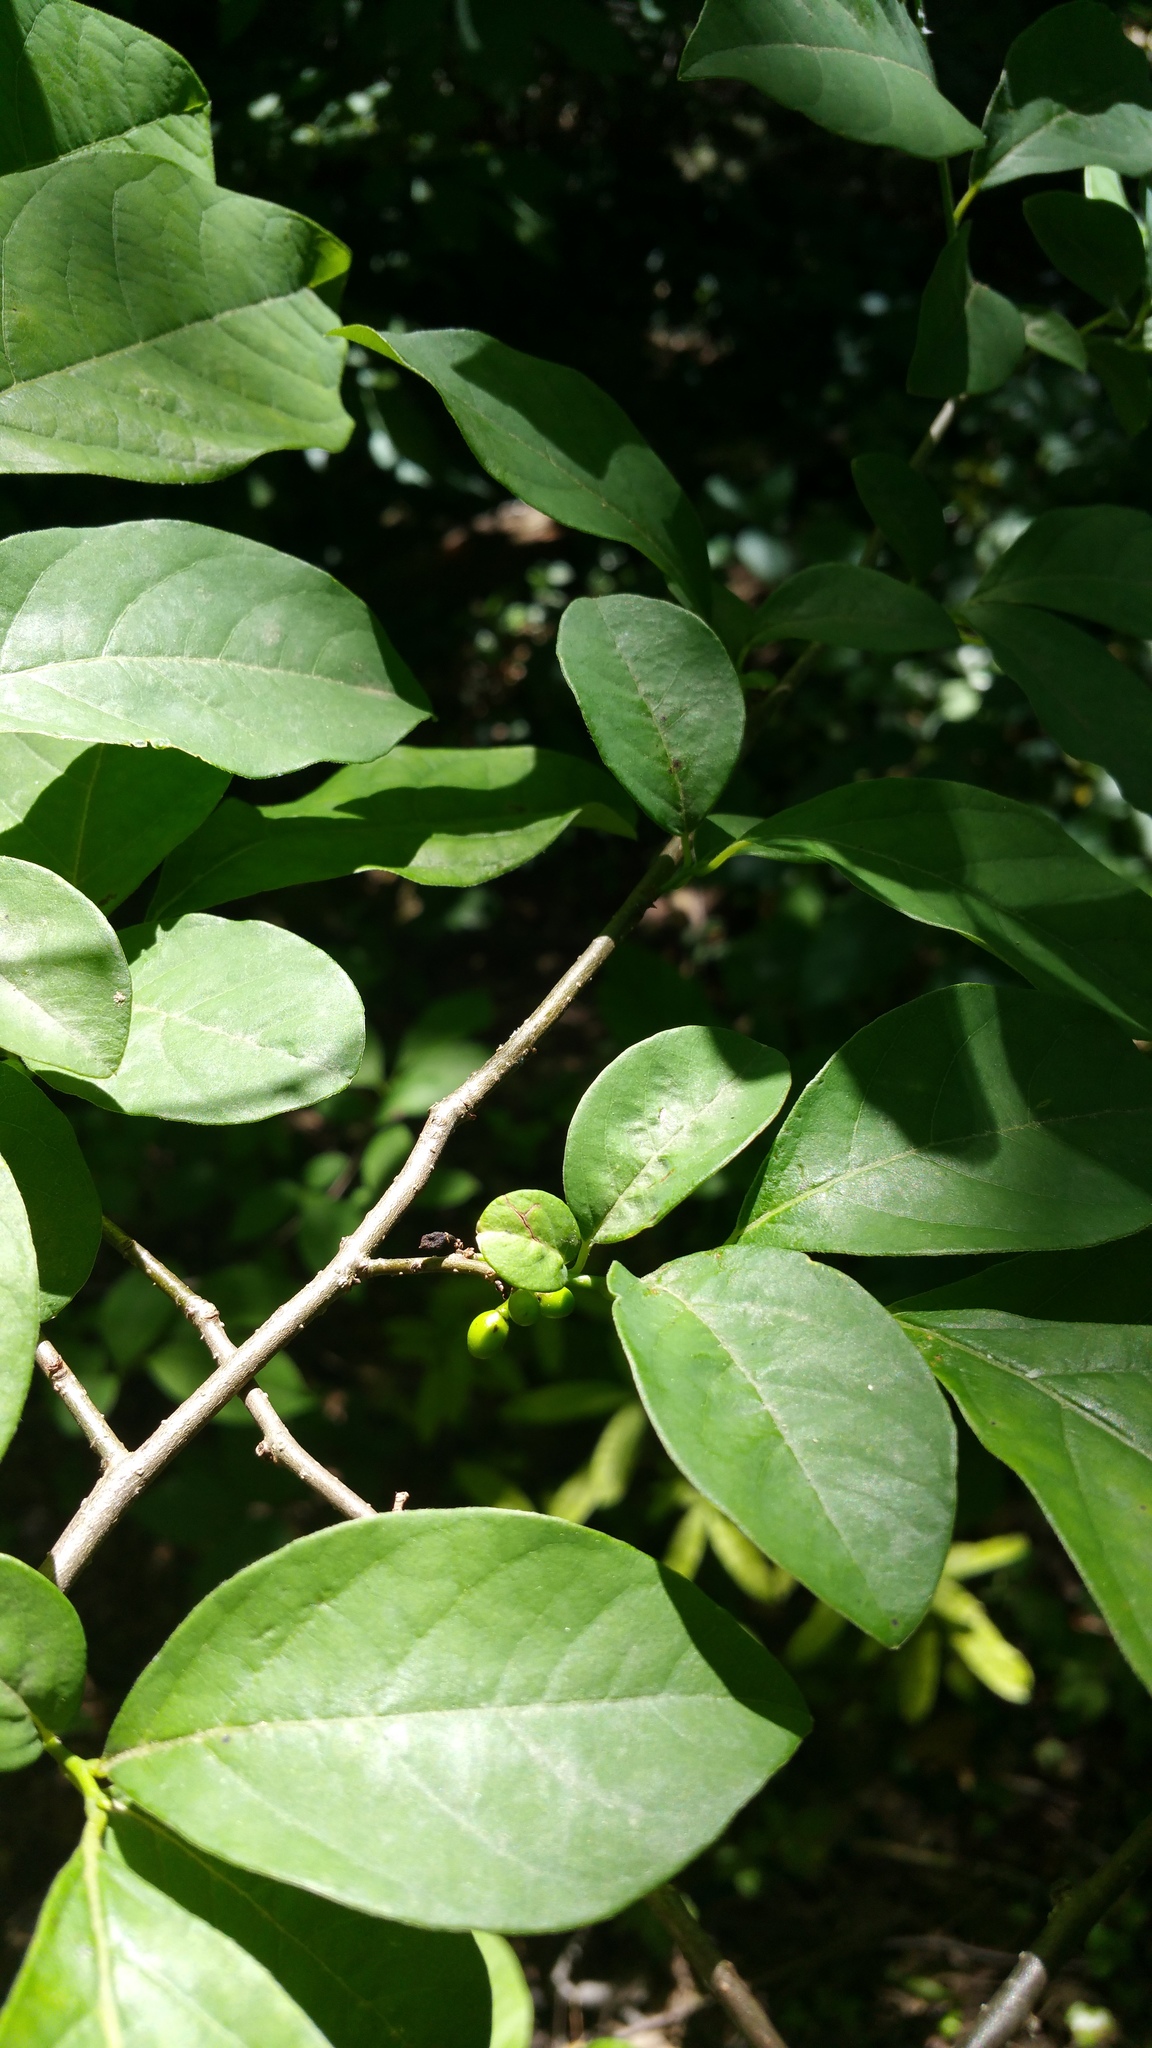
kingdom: Plantae
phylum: Tracheophyta
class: Magnoliopsida
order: Laurales
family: Lauraceae
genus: Lindera
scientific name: Lindera benzoin
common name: Spicebush
